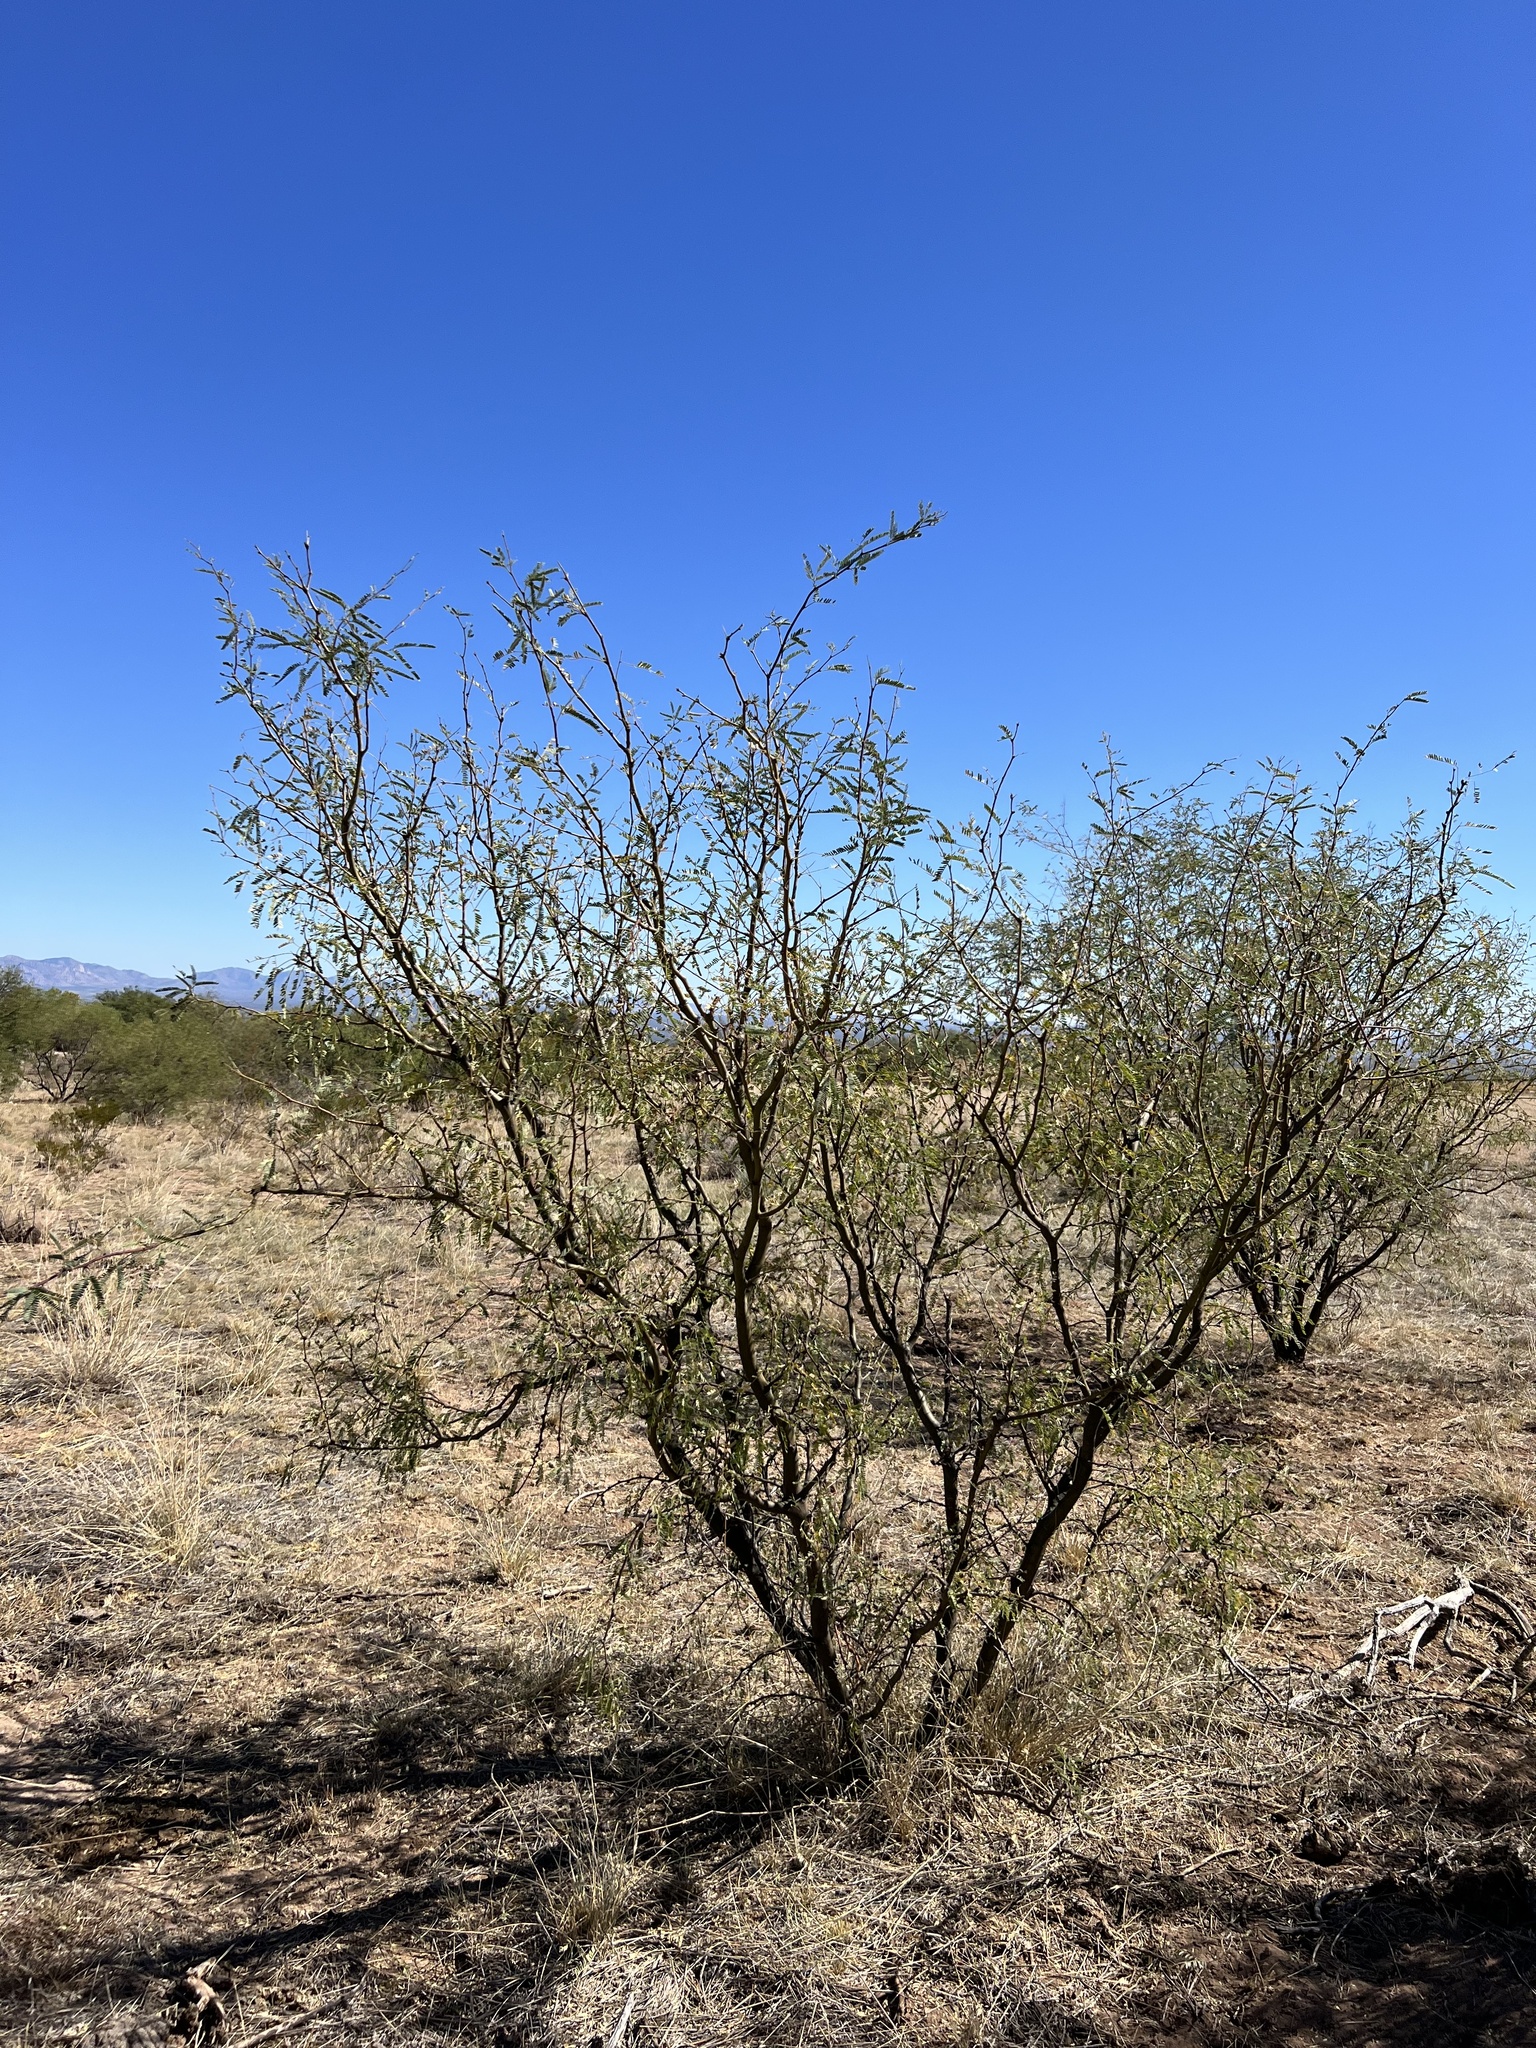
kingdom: Plantae
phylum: Tracheophyta
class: Magnoliopsida
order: Fabales
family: Fabaceae
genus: Prosopis
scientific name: Prosopis velutina
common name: Velvet mesquite
